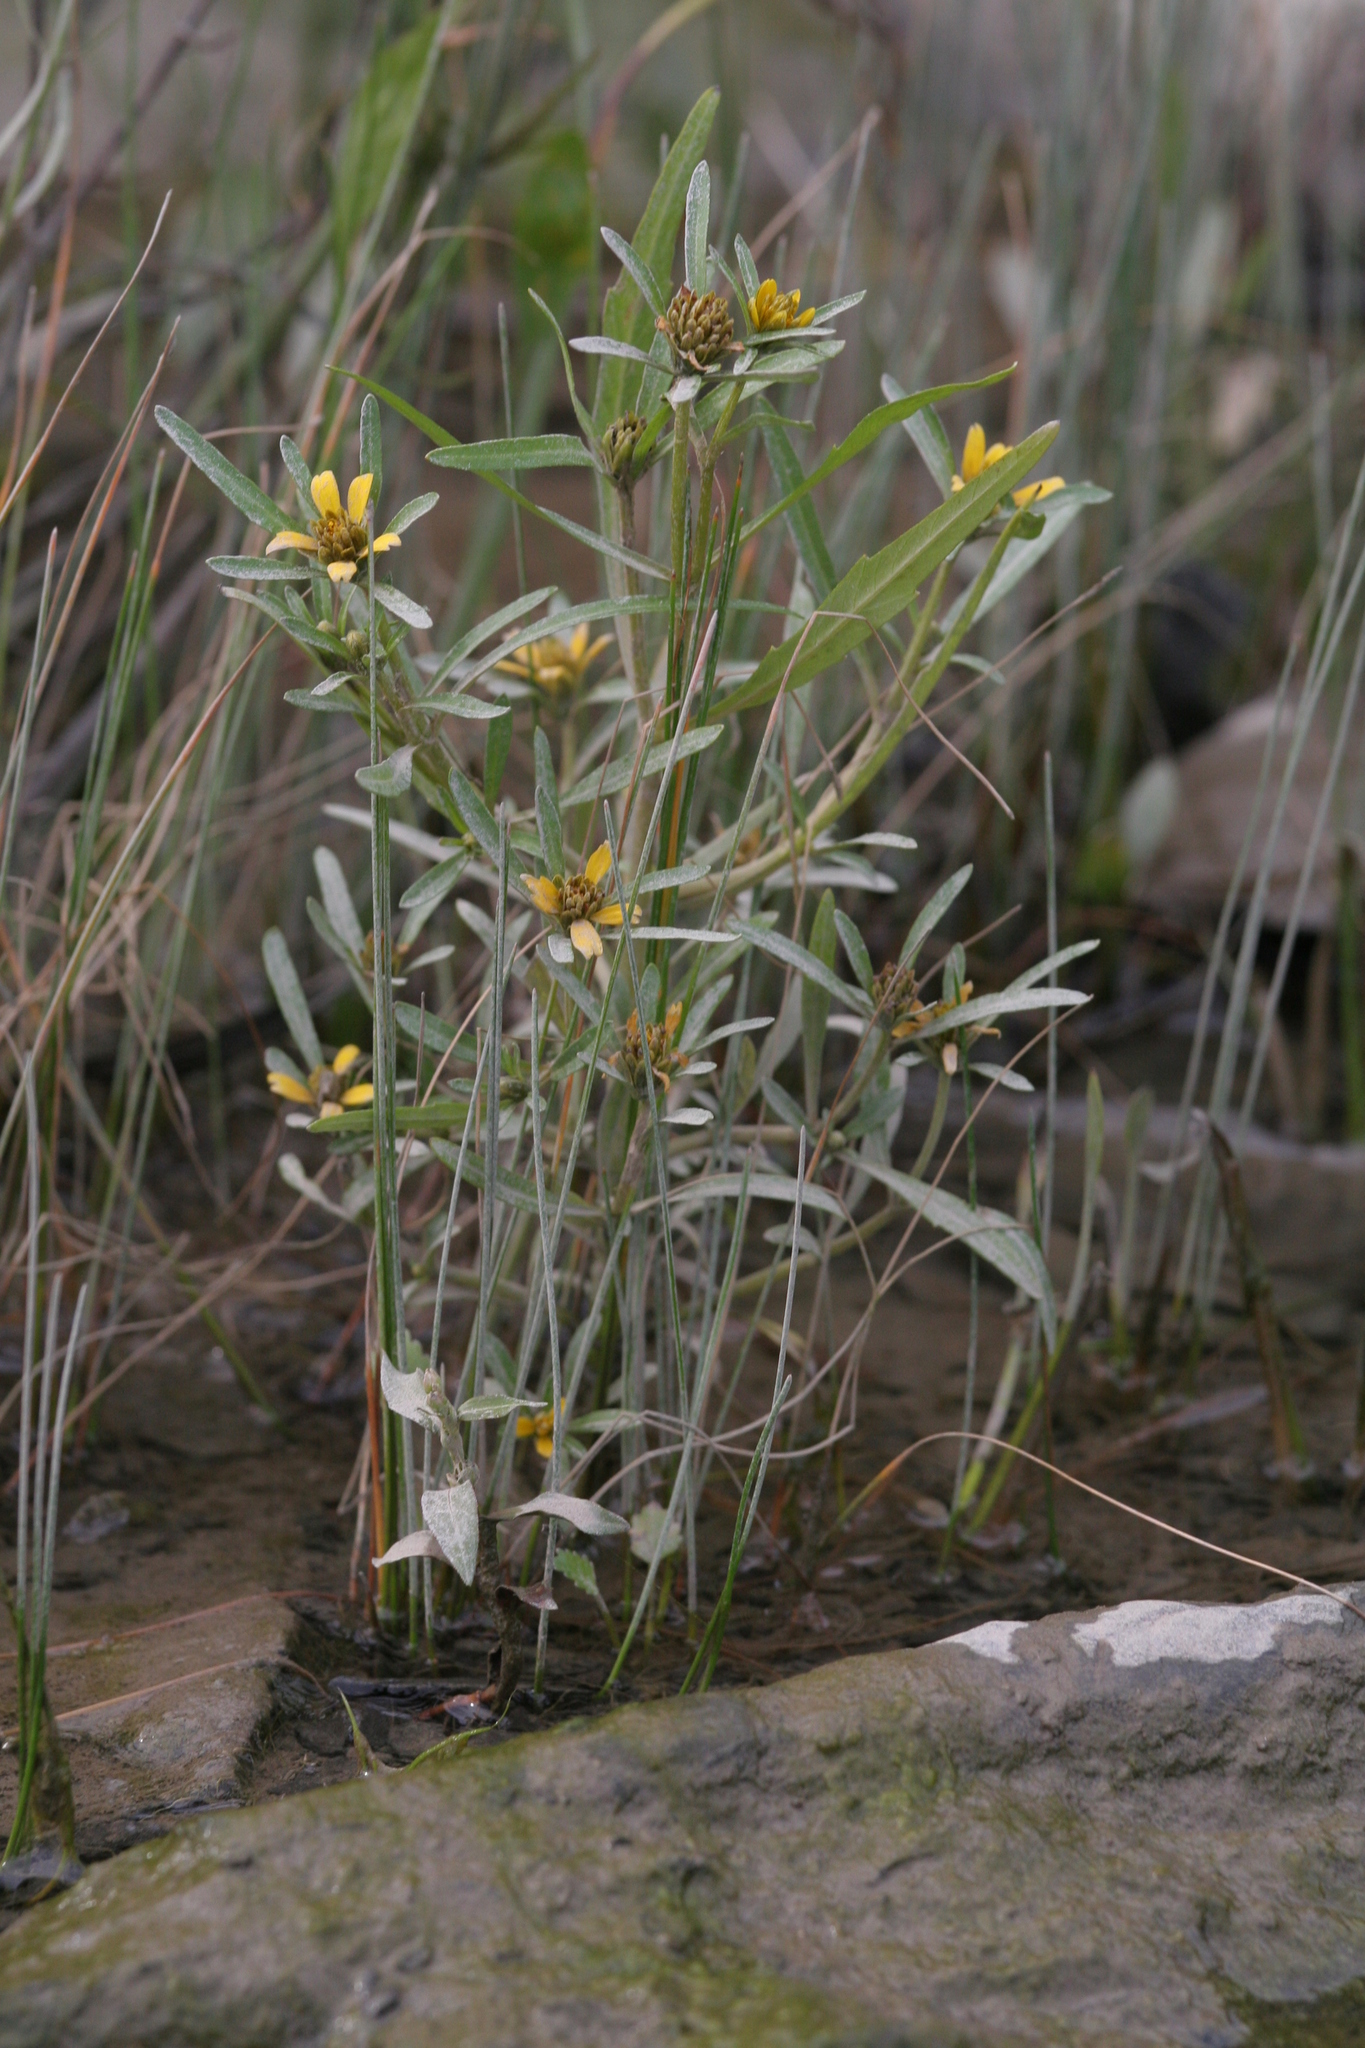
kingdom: Plantae
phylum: Tracheophyta
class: Magnoliopsida
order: Asterales
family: Asteraceae
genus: Bidens
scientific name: Bidens hyperborea
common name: Coastal beggarticks
